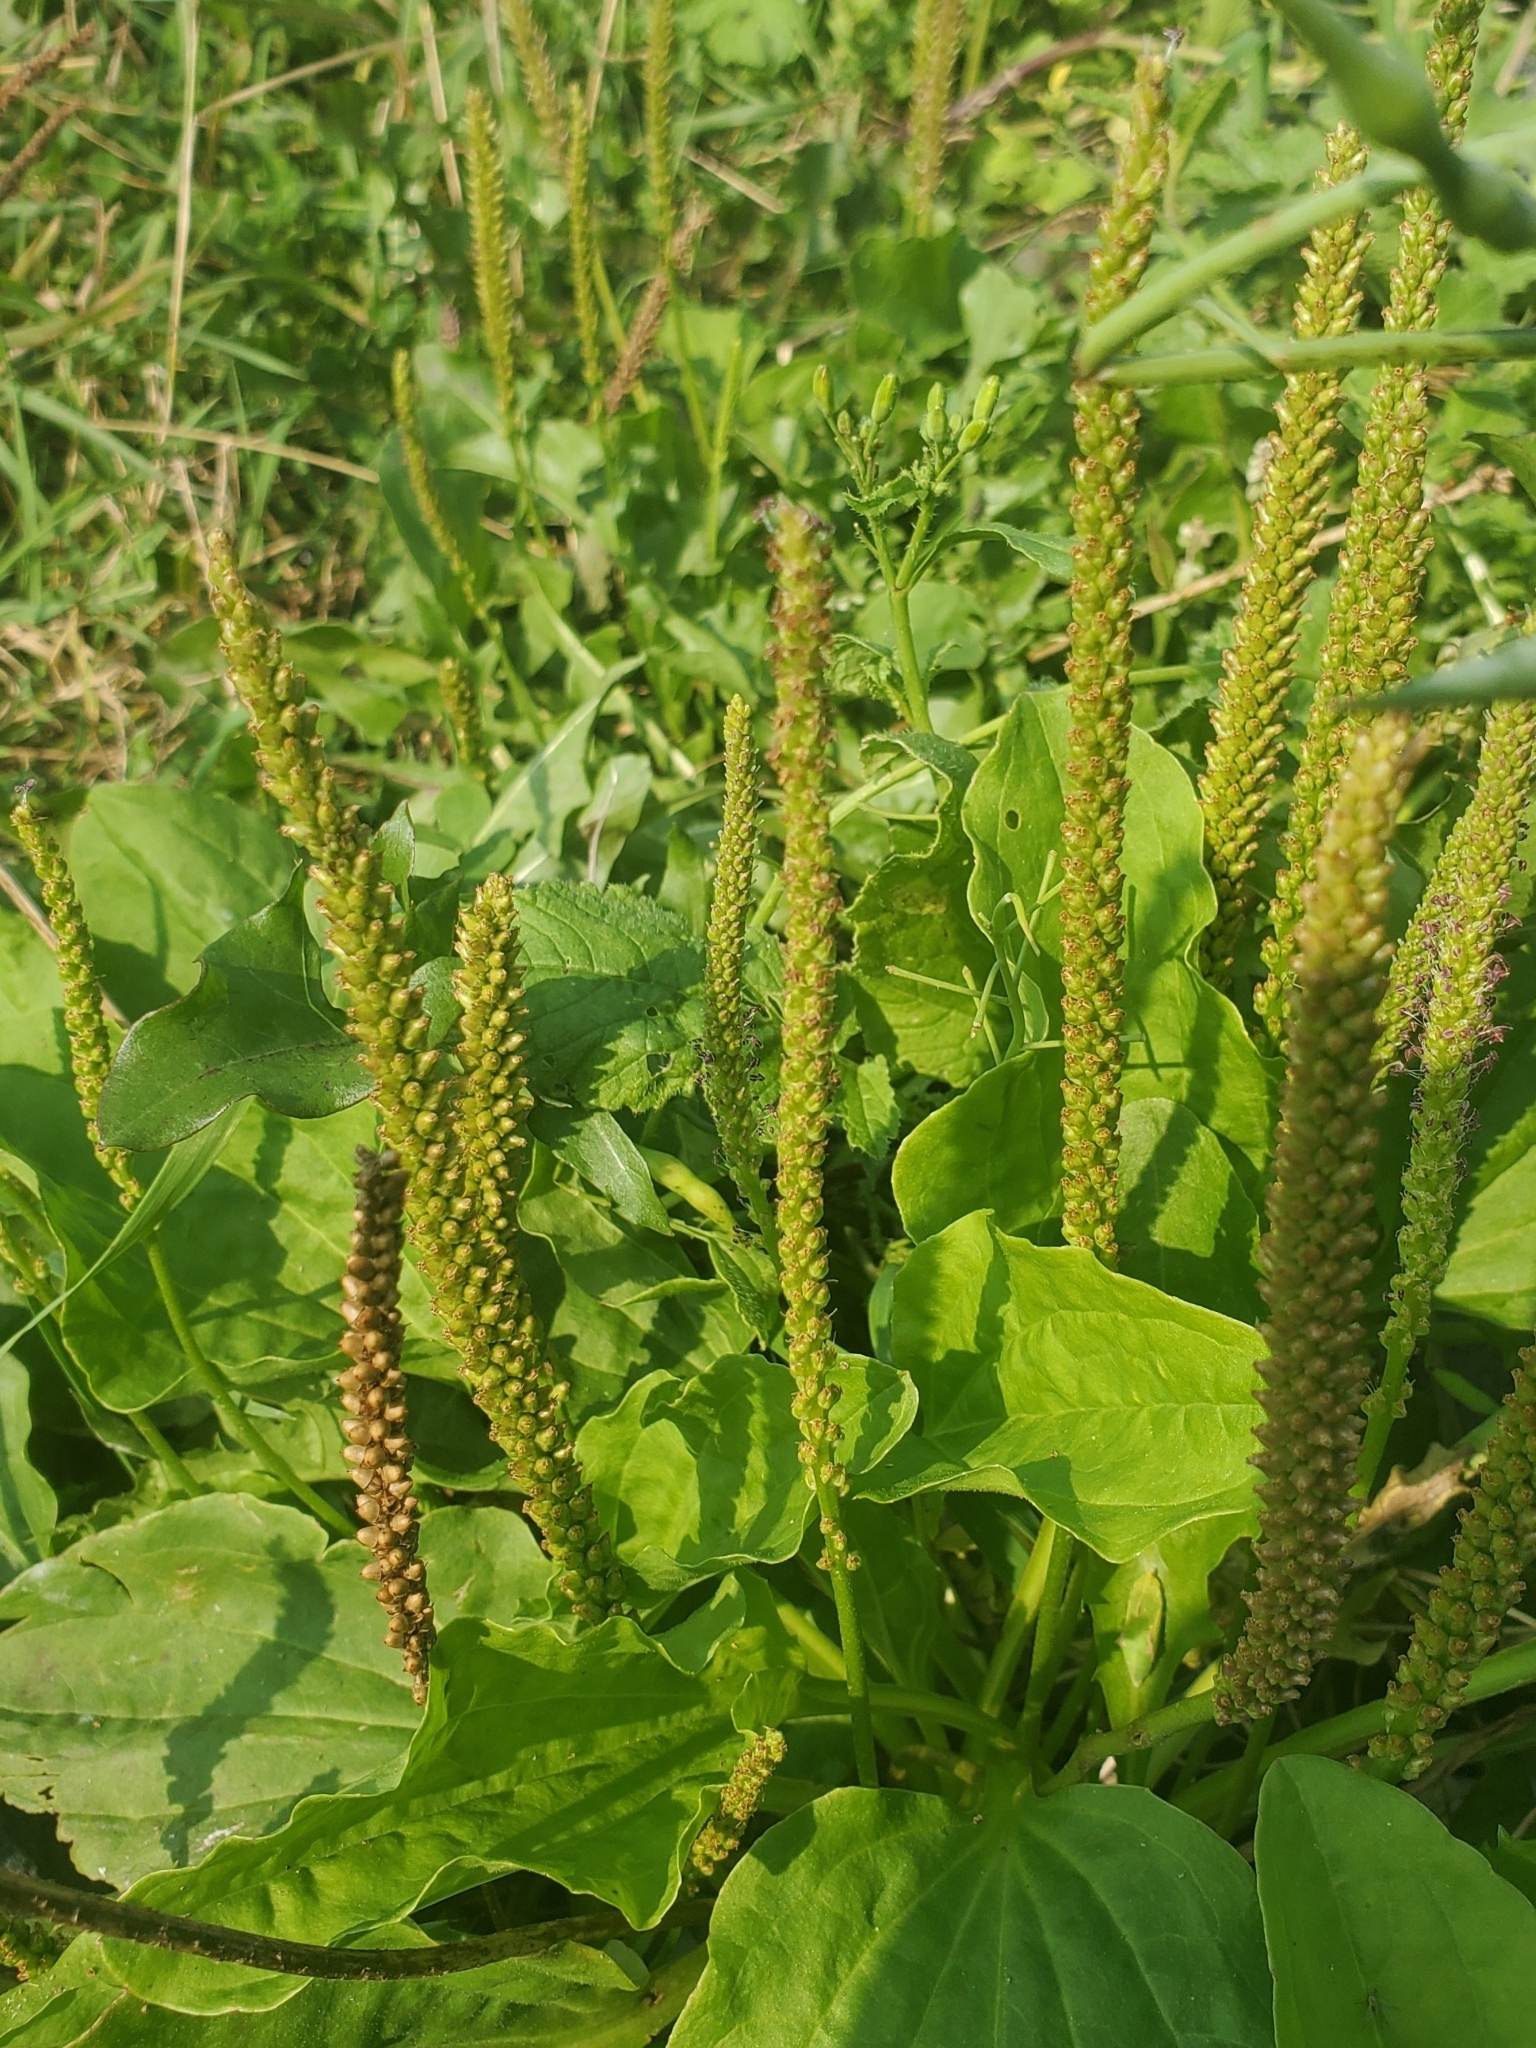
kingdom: Plantae
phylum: Tracheophyta
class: Magnoliopsida
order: Lamiales
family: Plantaginaceae
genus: Plantago
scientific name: Plantago major
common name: Common plantain
